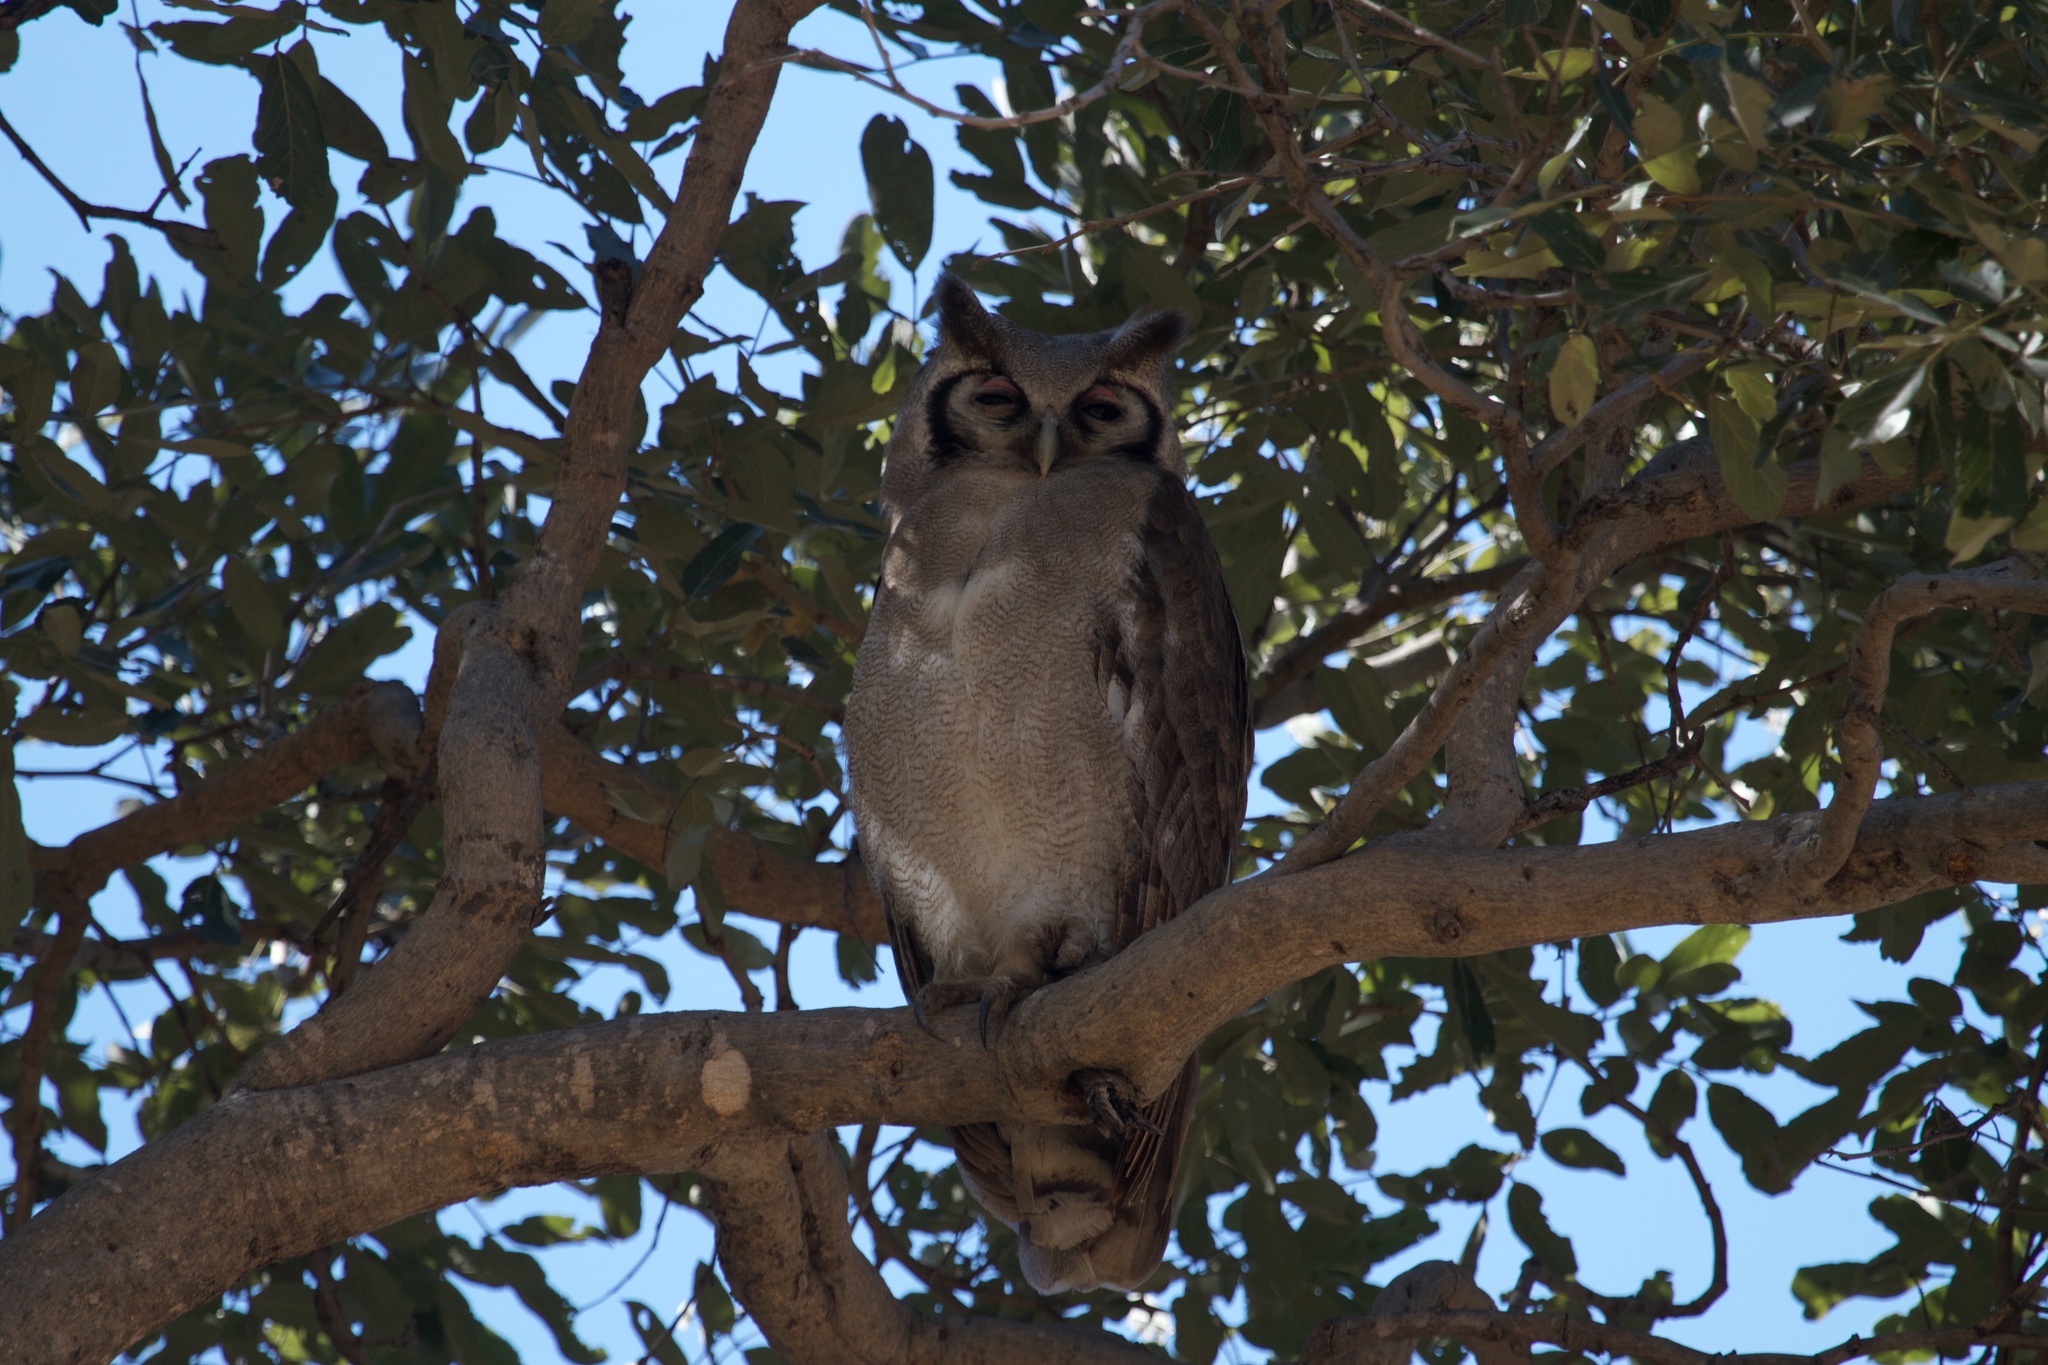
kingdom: Animalia
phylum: Chordata
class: Aves
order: Strigiformes
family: Strigidae
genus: Bubo
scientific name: Bubo lacteus
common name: Verreaux's eagle-owl
